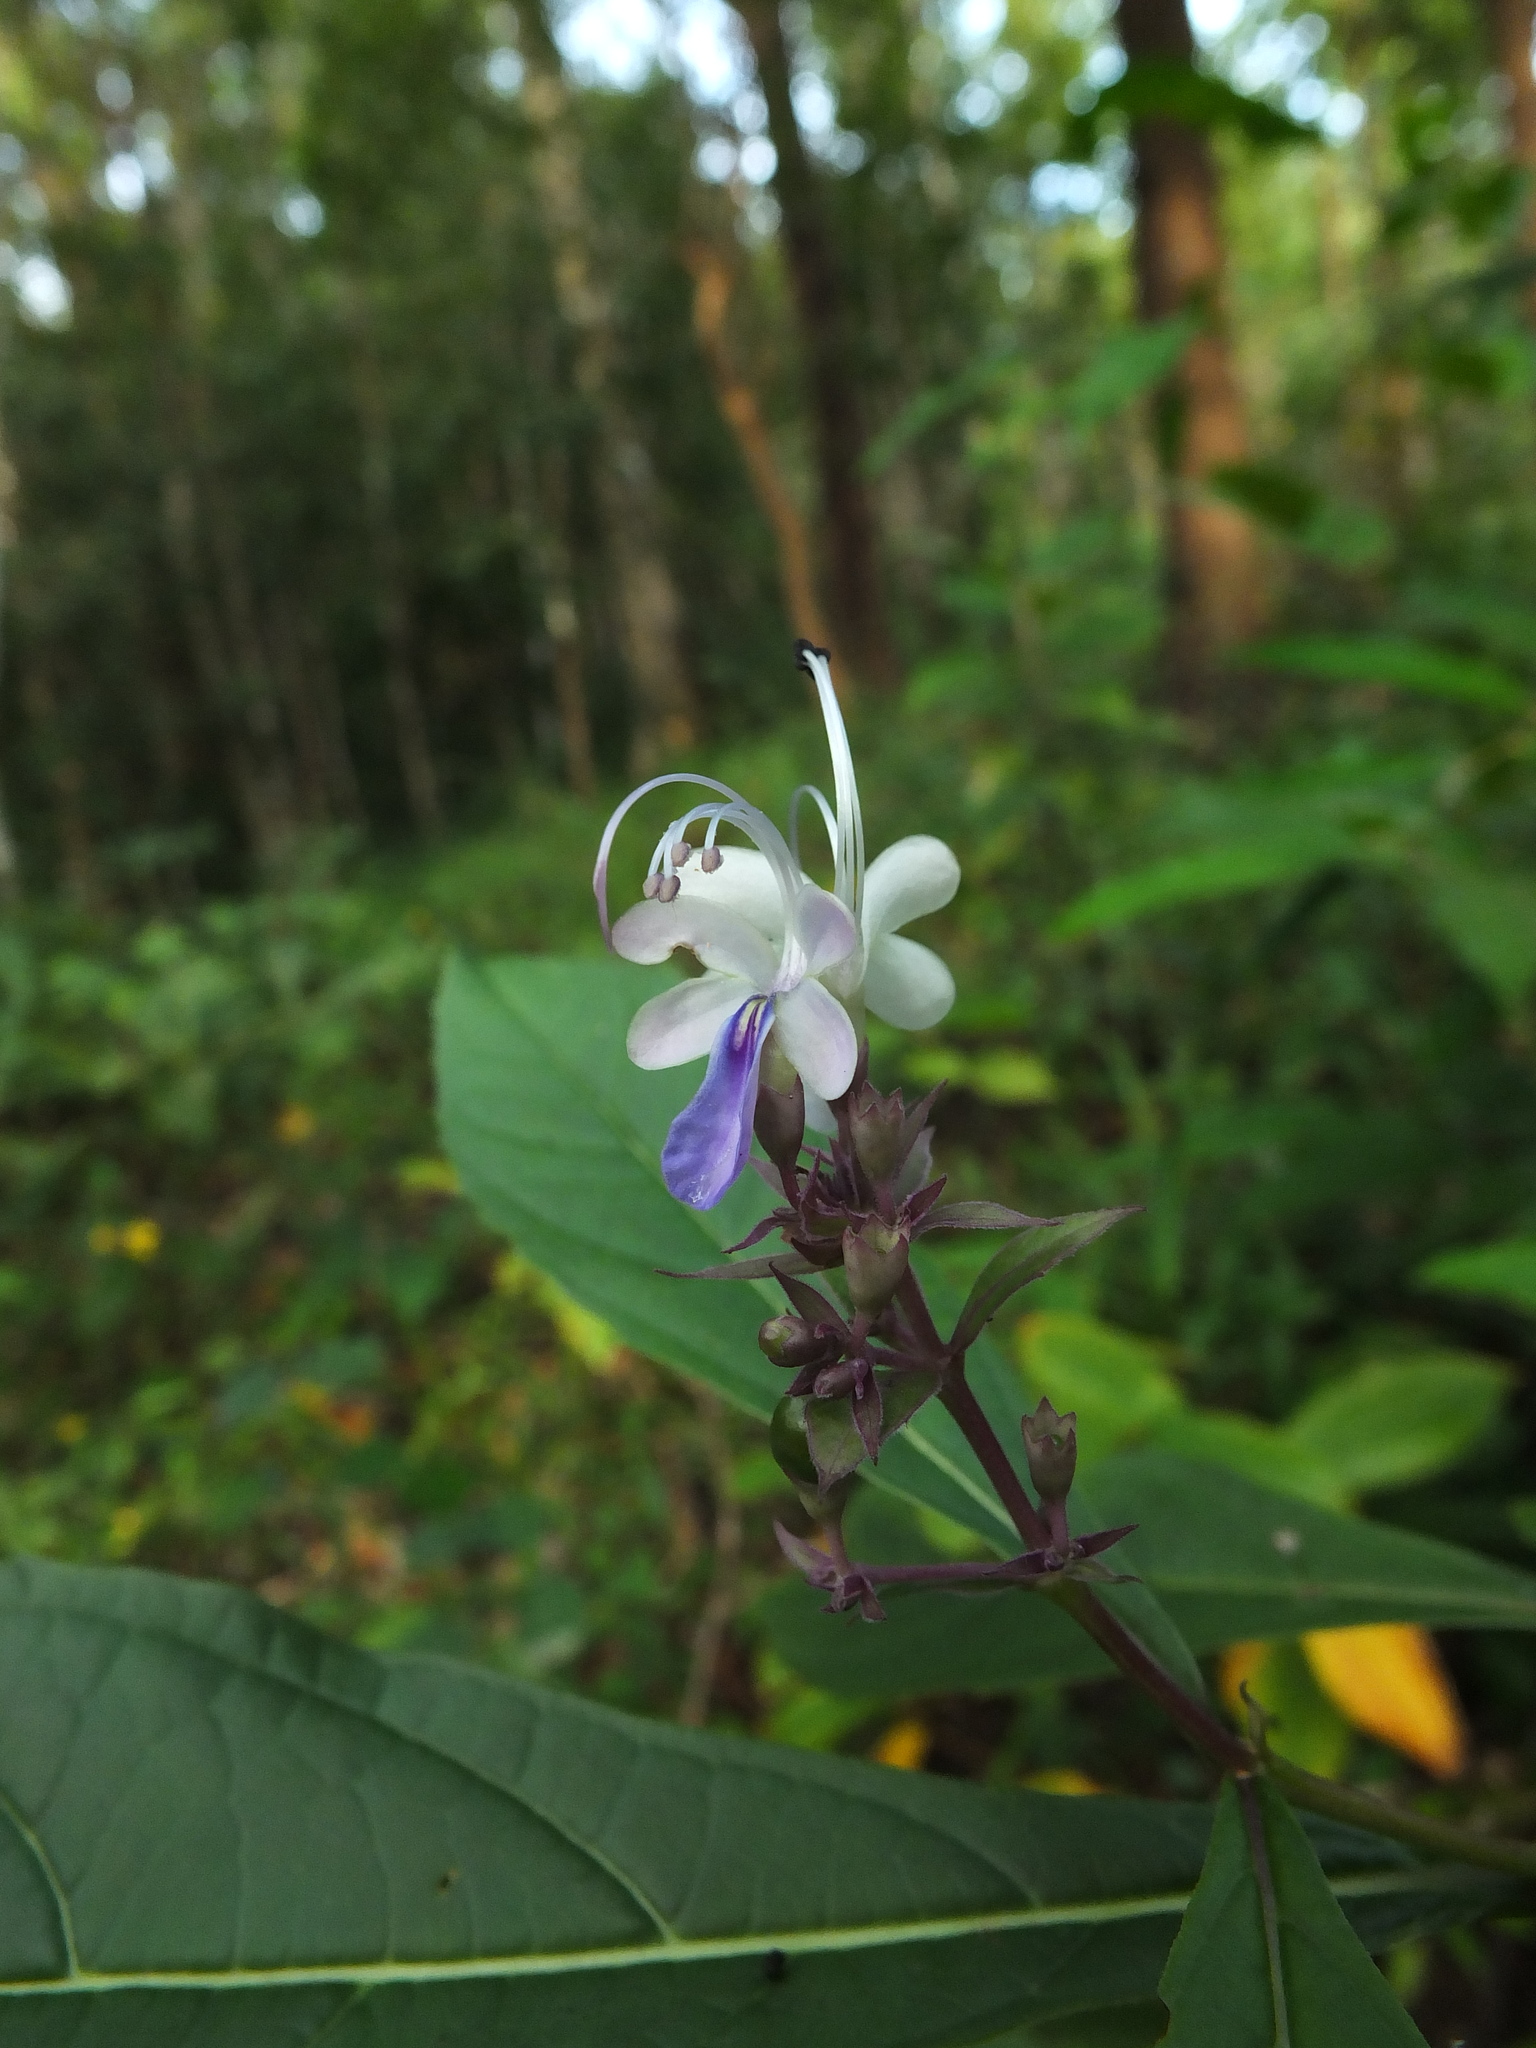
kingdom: Plantae
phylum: Tracheophyta
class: Magnoliopsida
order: Lamiales
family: Lamiaceae
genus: Rotheca
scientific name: Rotheca serrata
